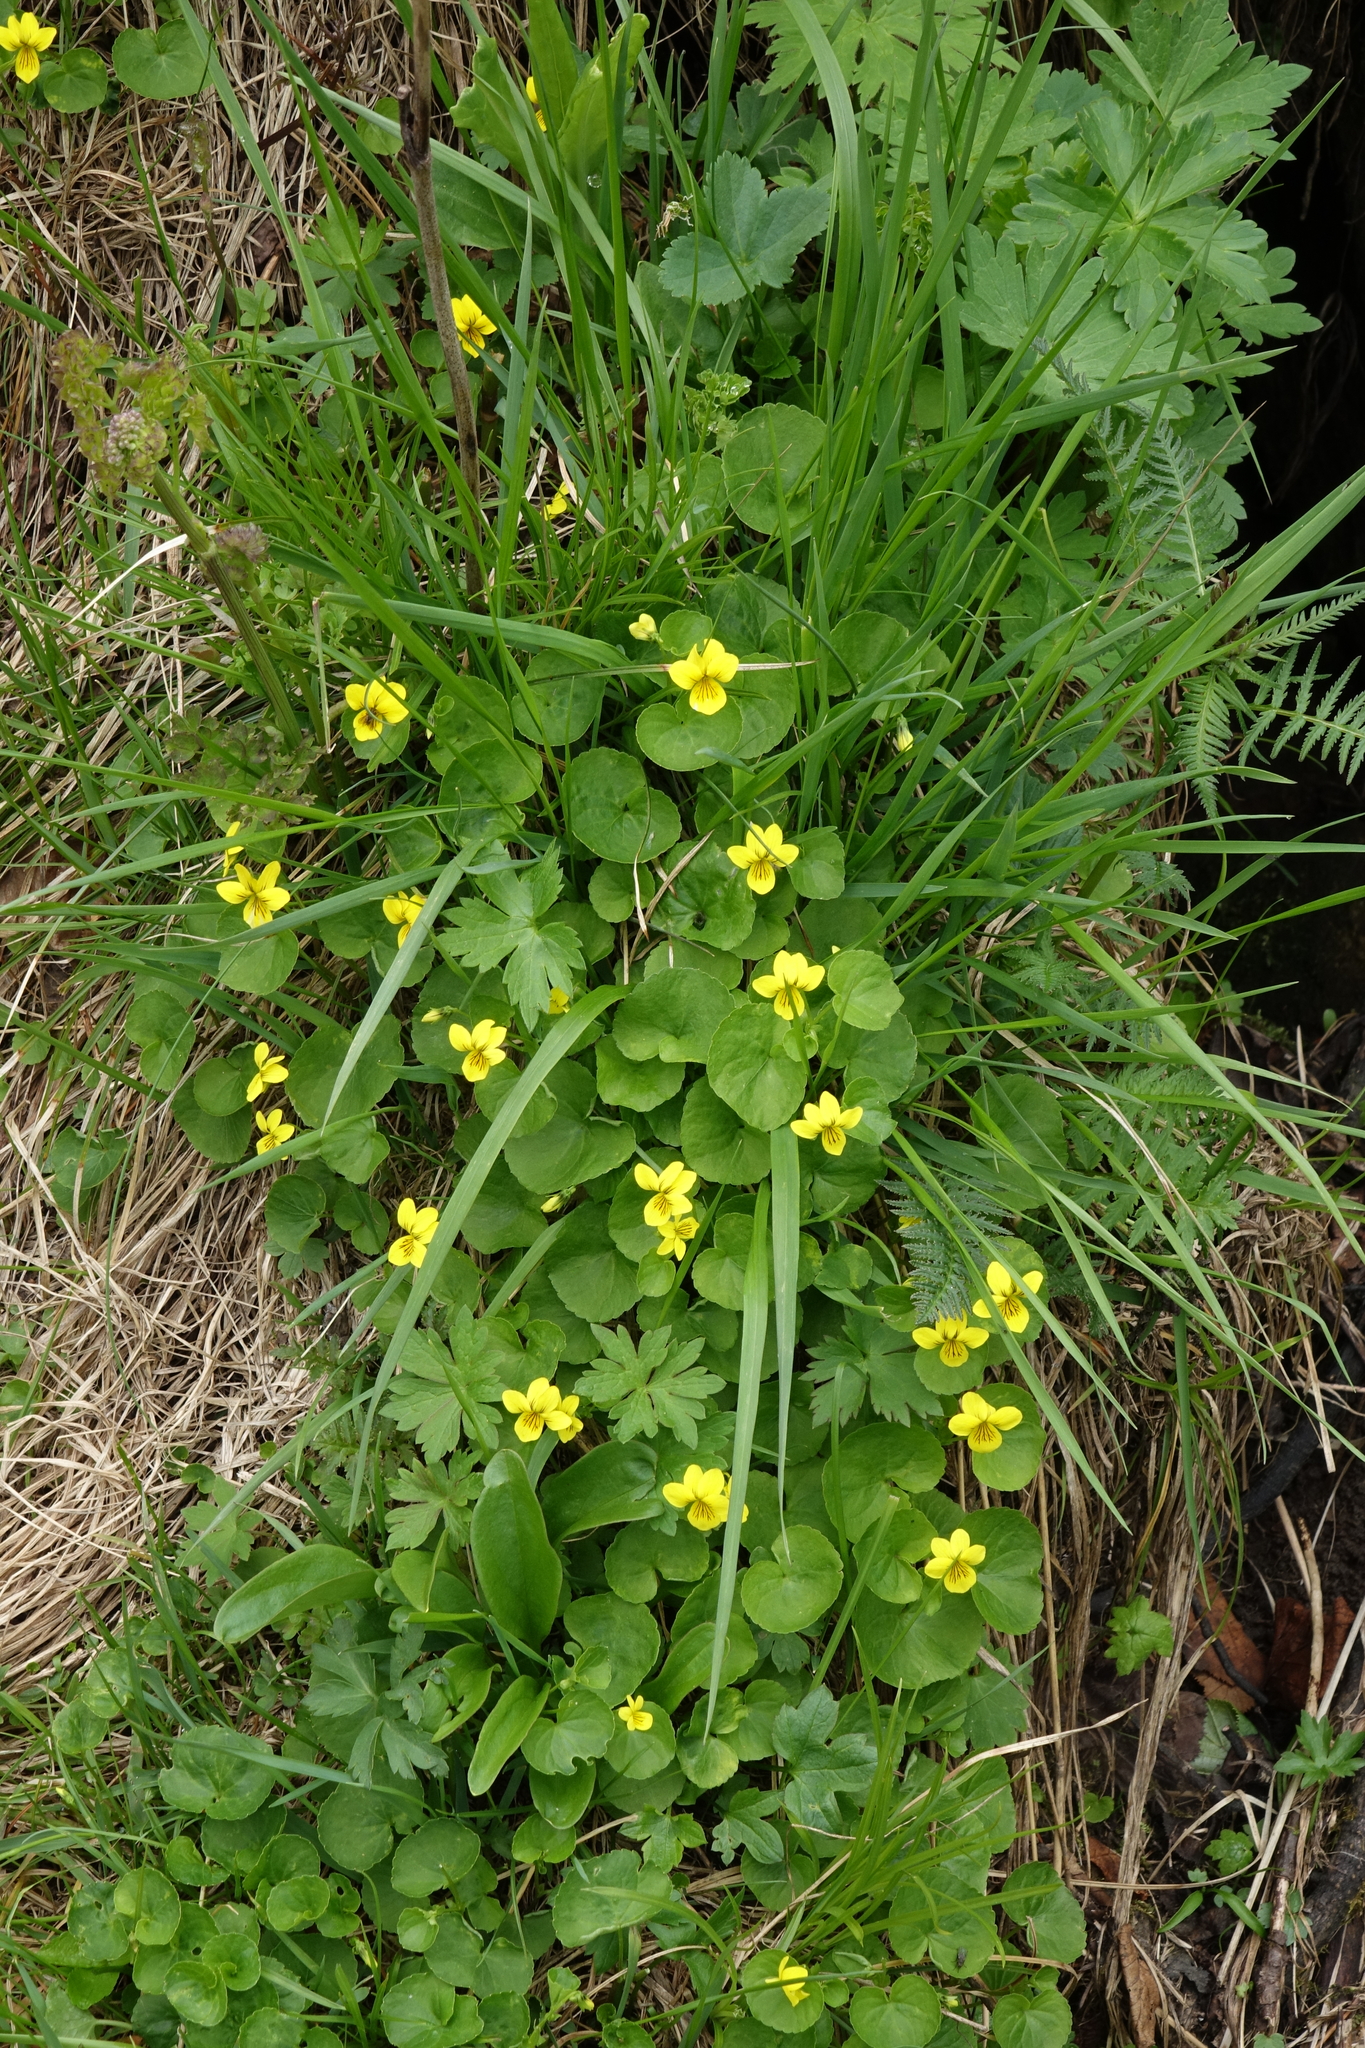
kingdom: Plantae
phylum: Tracheophyta
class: Magnoliopsida
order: Malpighiales
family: Violaceae
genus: Viola
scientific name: Viola biflora
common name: Alpine yellow violet
